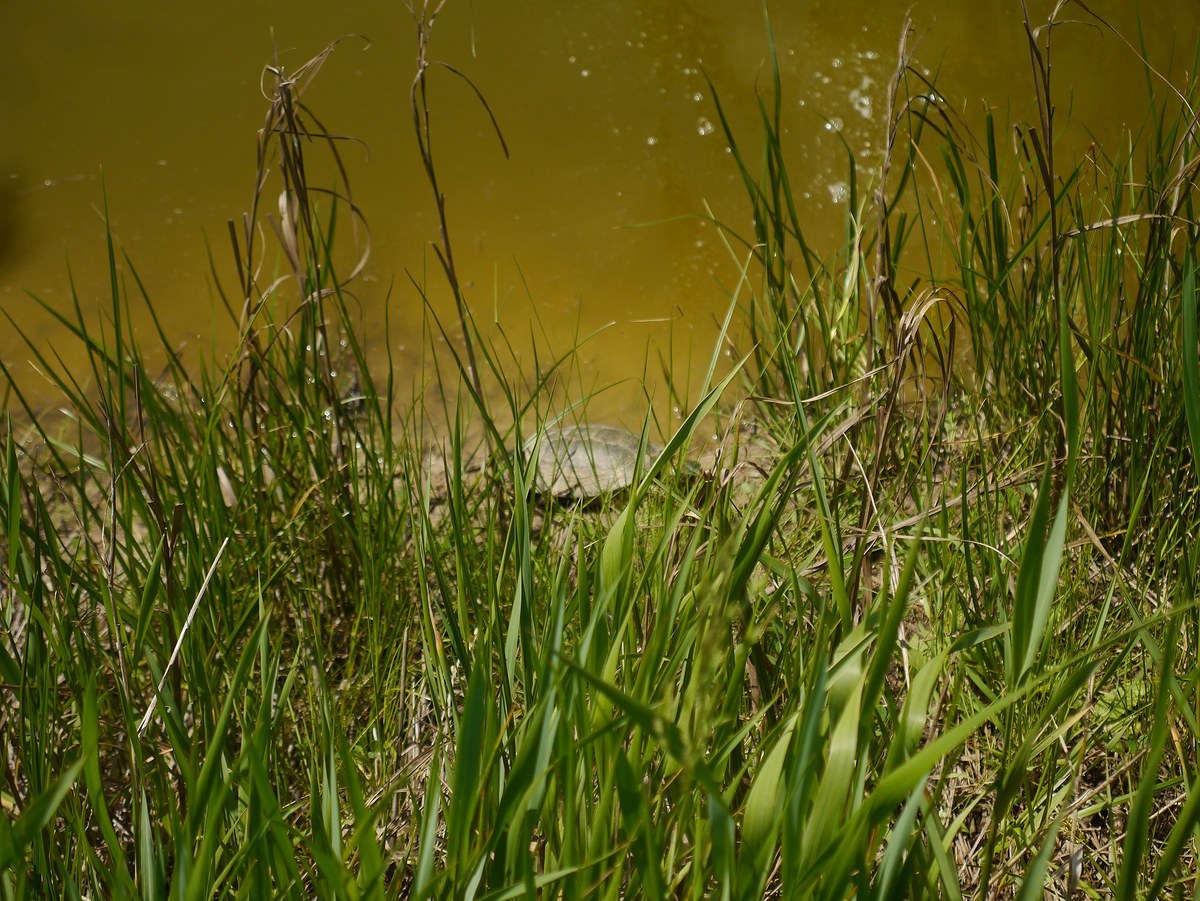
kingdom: Animalia
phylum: Chordata
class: Testudines
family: Emydidae
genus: Emys
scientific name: Emys orbicularis
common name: European pond turtle
